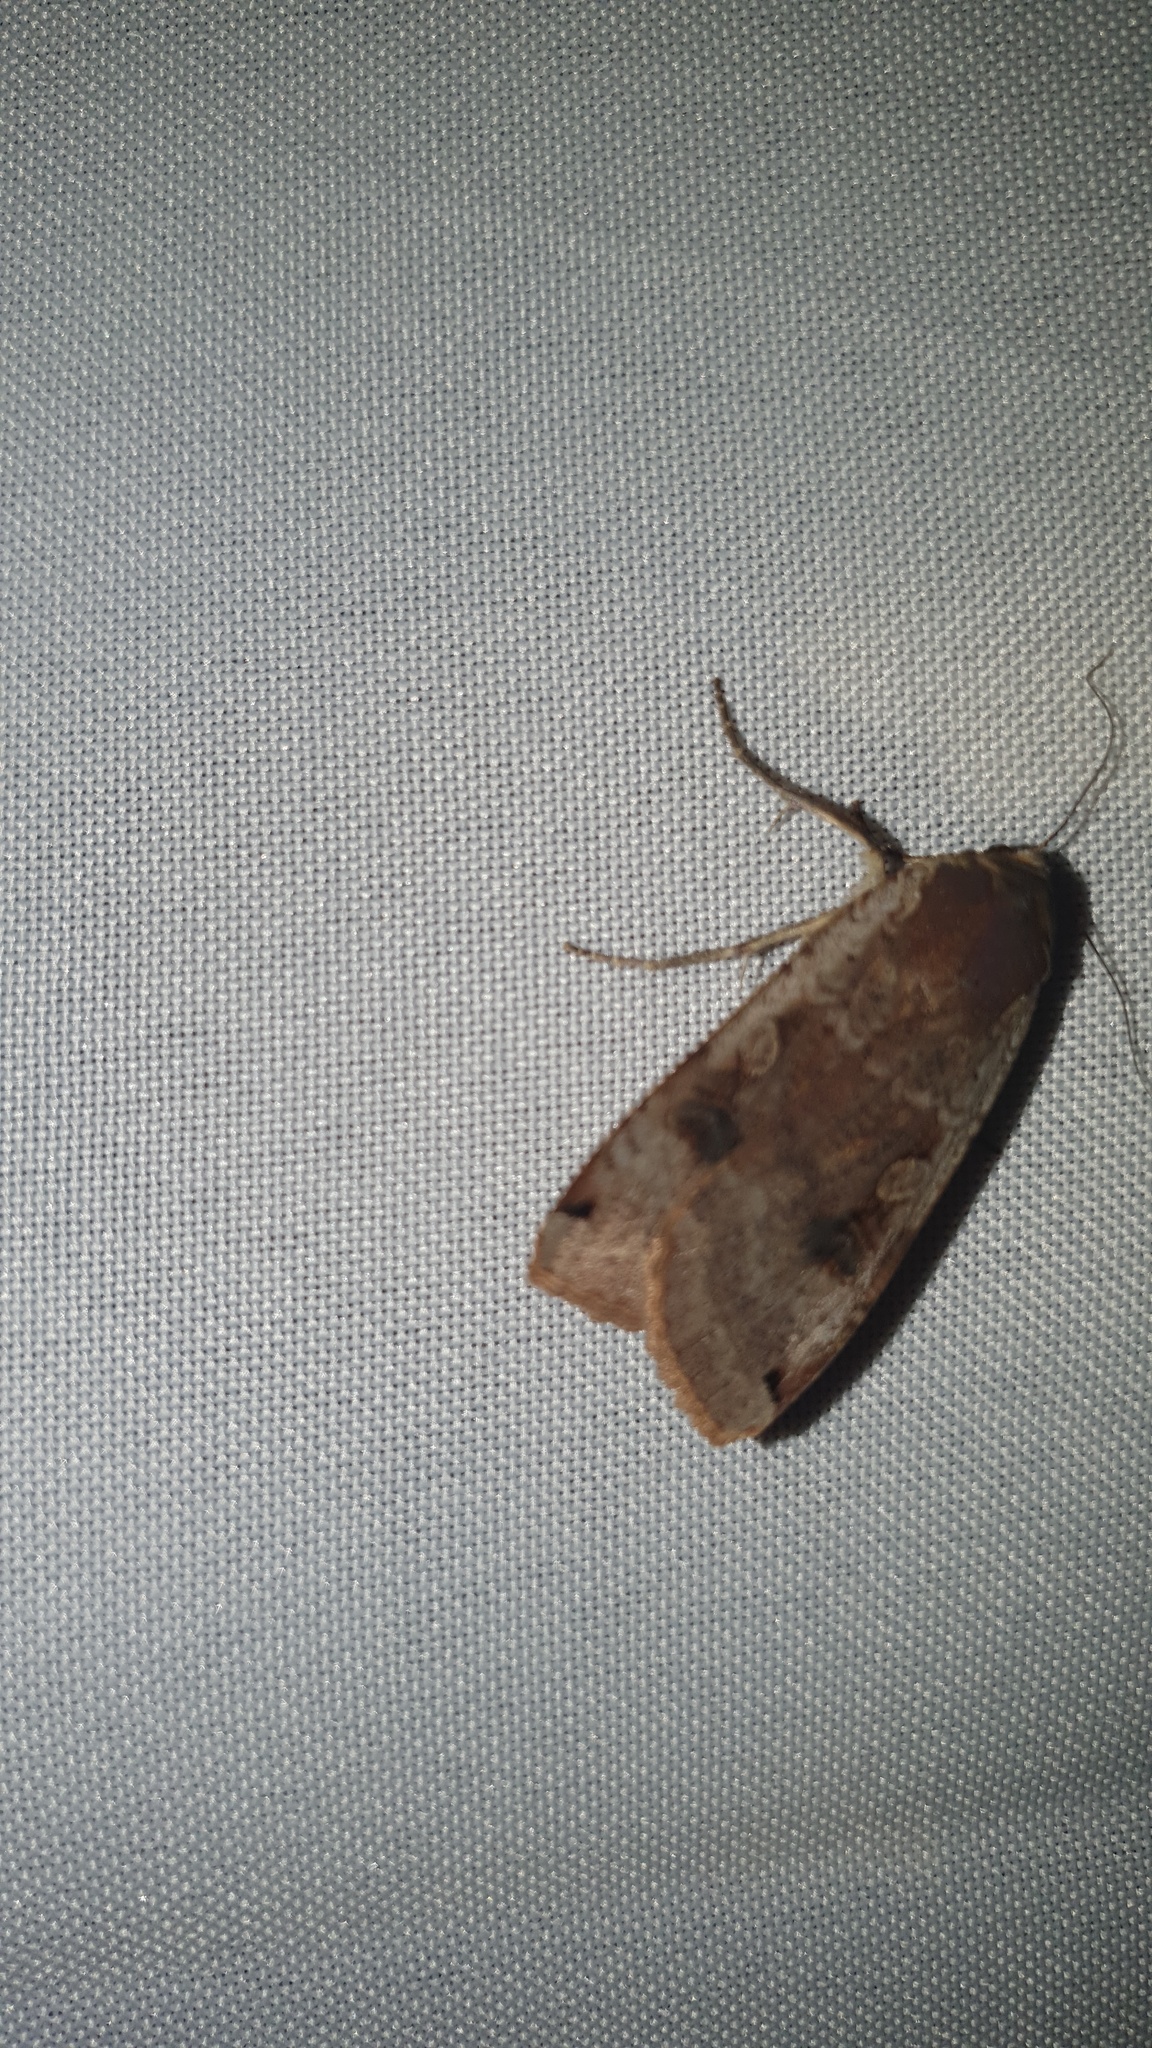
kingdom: Animalia
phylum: Arthropoda
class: Insecta
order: Lepidoptera
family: Noctuidae
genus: Noctua
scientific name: Noctua pronuba
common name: Large yellow underwing
